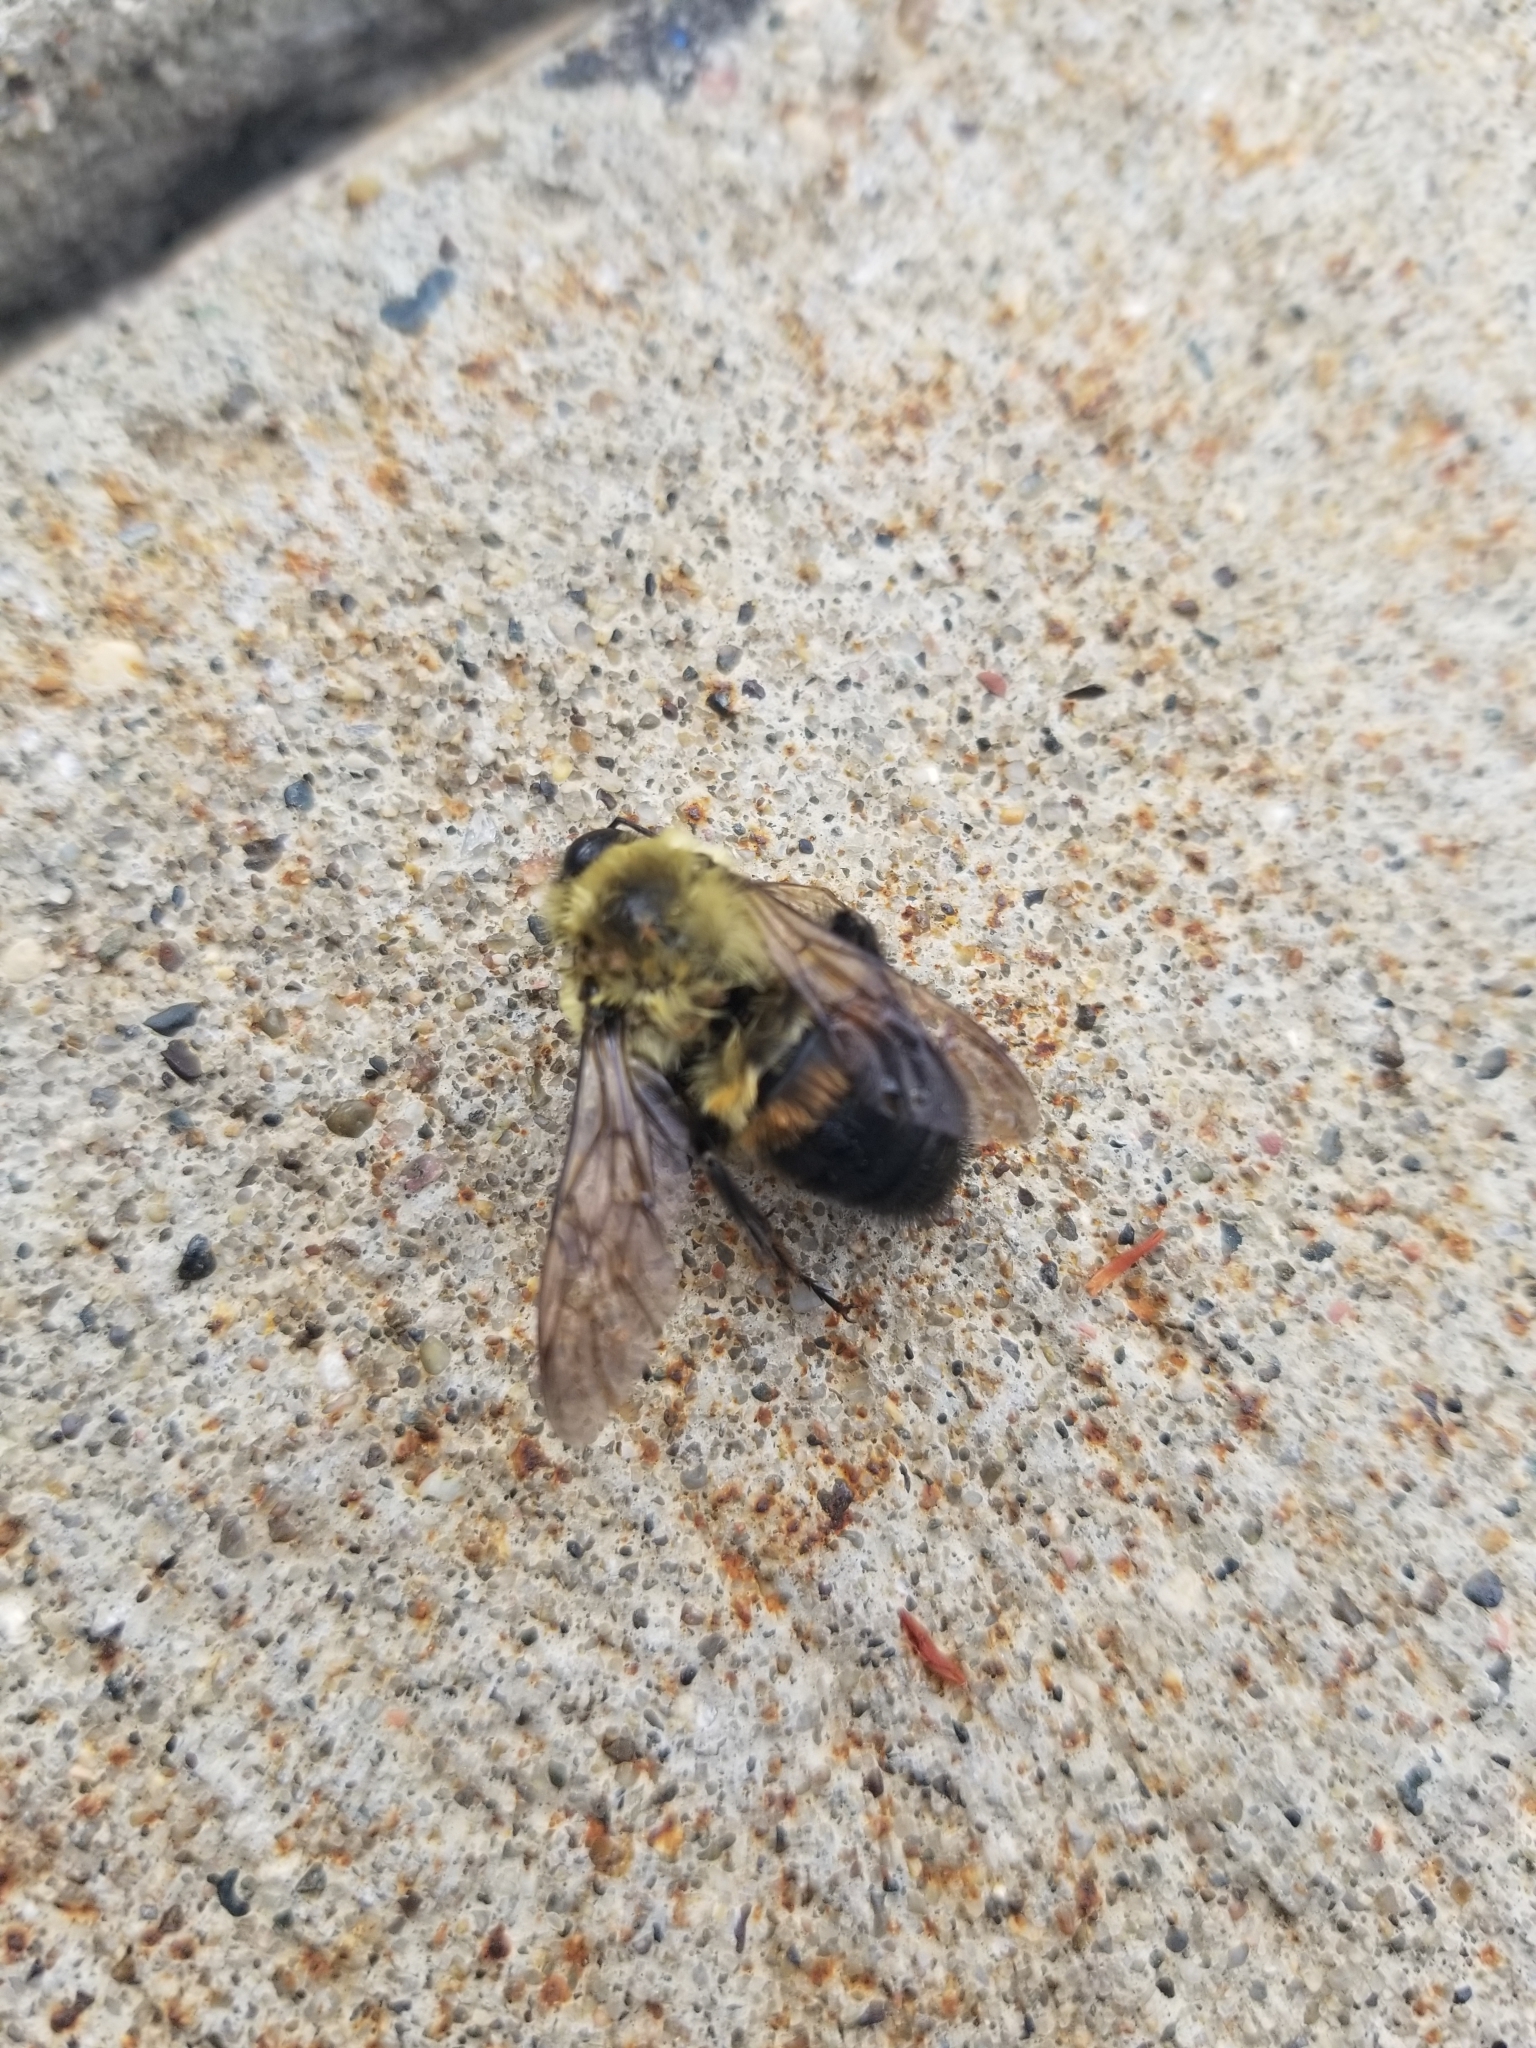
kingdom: Animalia
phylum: Arthropoda
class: Insecta
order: Hymenoptera
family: Apidae
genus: Bombus
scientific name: Bombus griseocollis
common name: Brown-belted bumble bee
